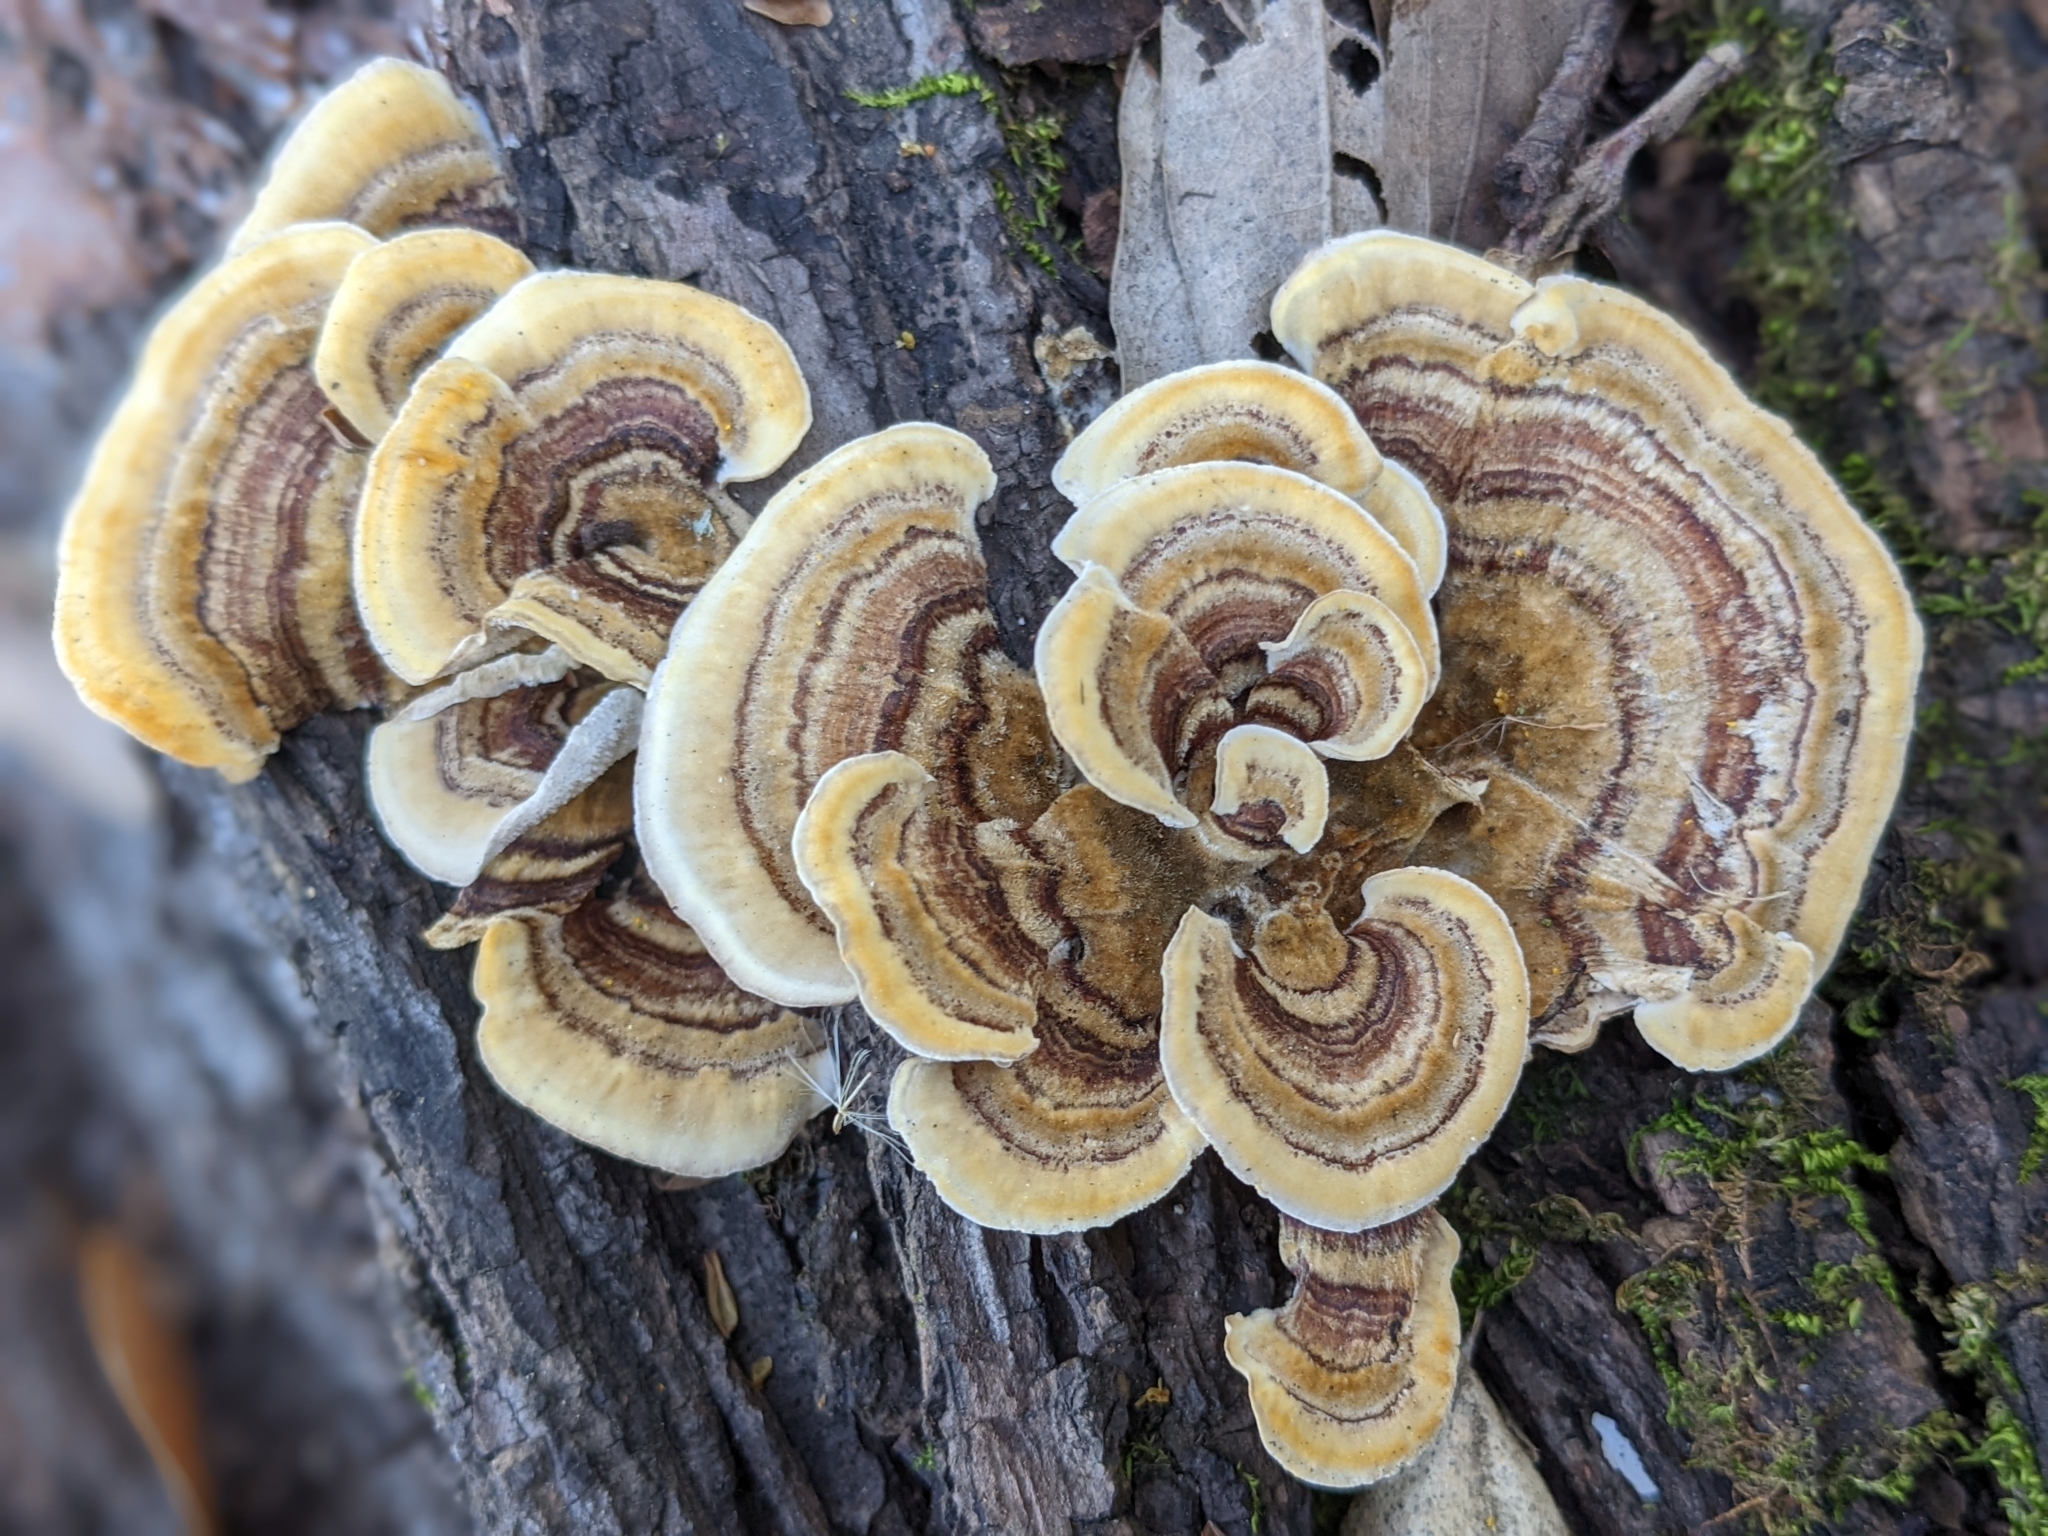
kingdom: Fungi
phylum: Basidiomycota
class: Agaricomycetes
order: Polyporales
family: Polyporaceae
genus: Trametes
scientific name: Trametes versicolor
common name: Turkeytail
